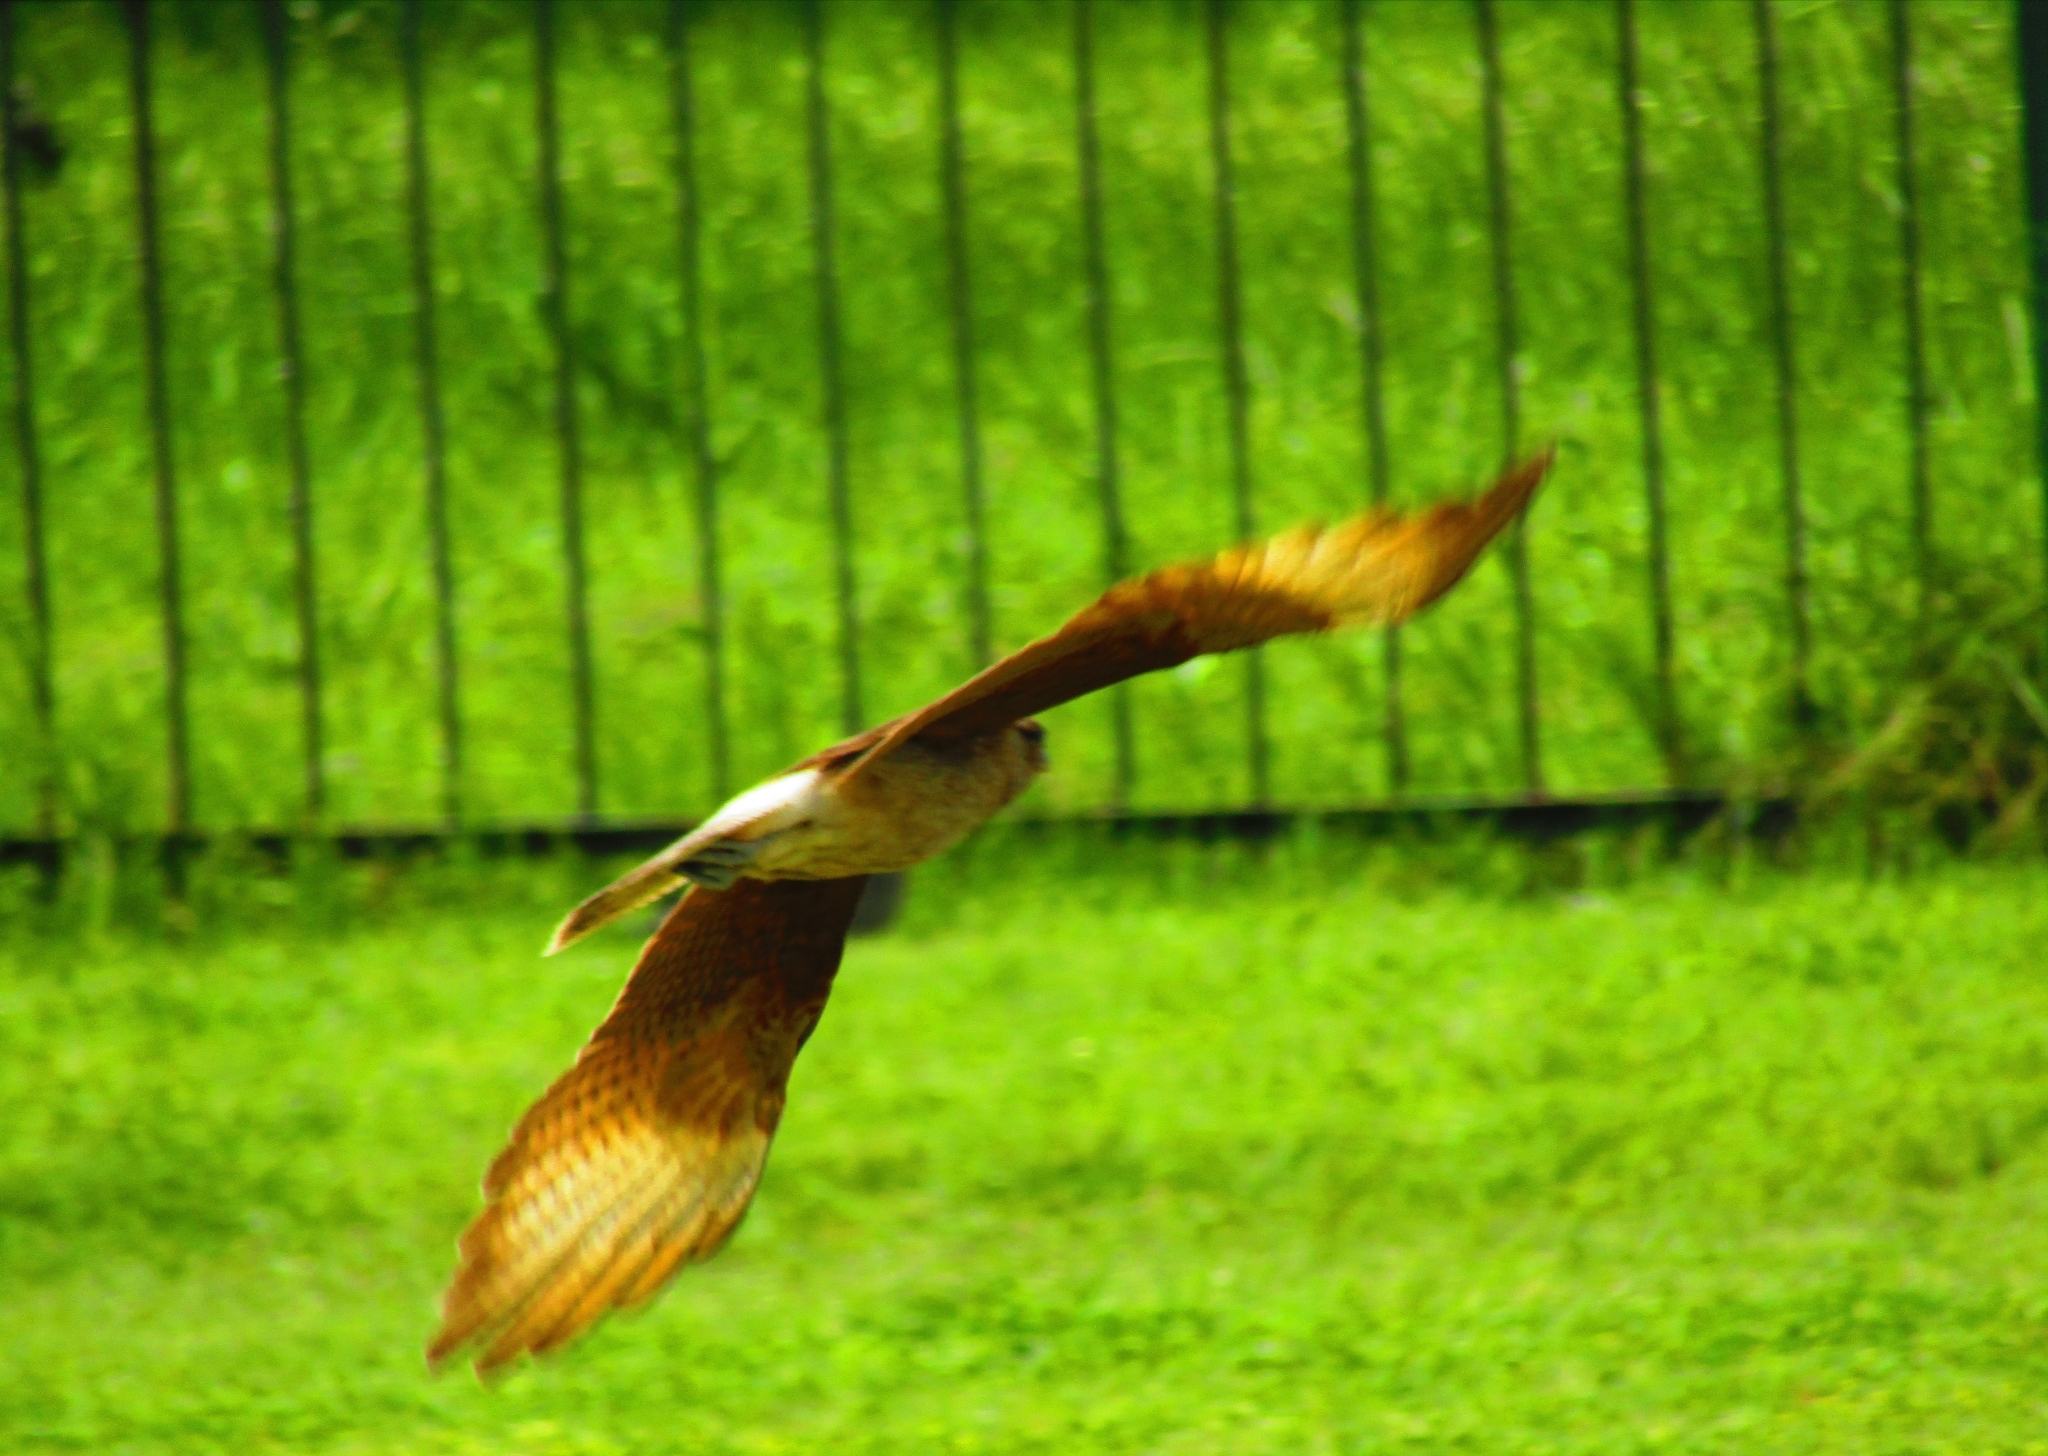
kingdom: Animalia
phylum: Chordata
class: Aves
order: Falconiformes
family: Falconidae
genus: Daptrius
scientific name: Daptrius
